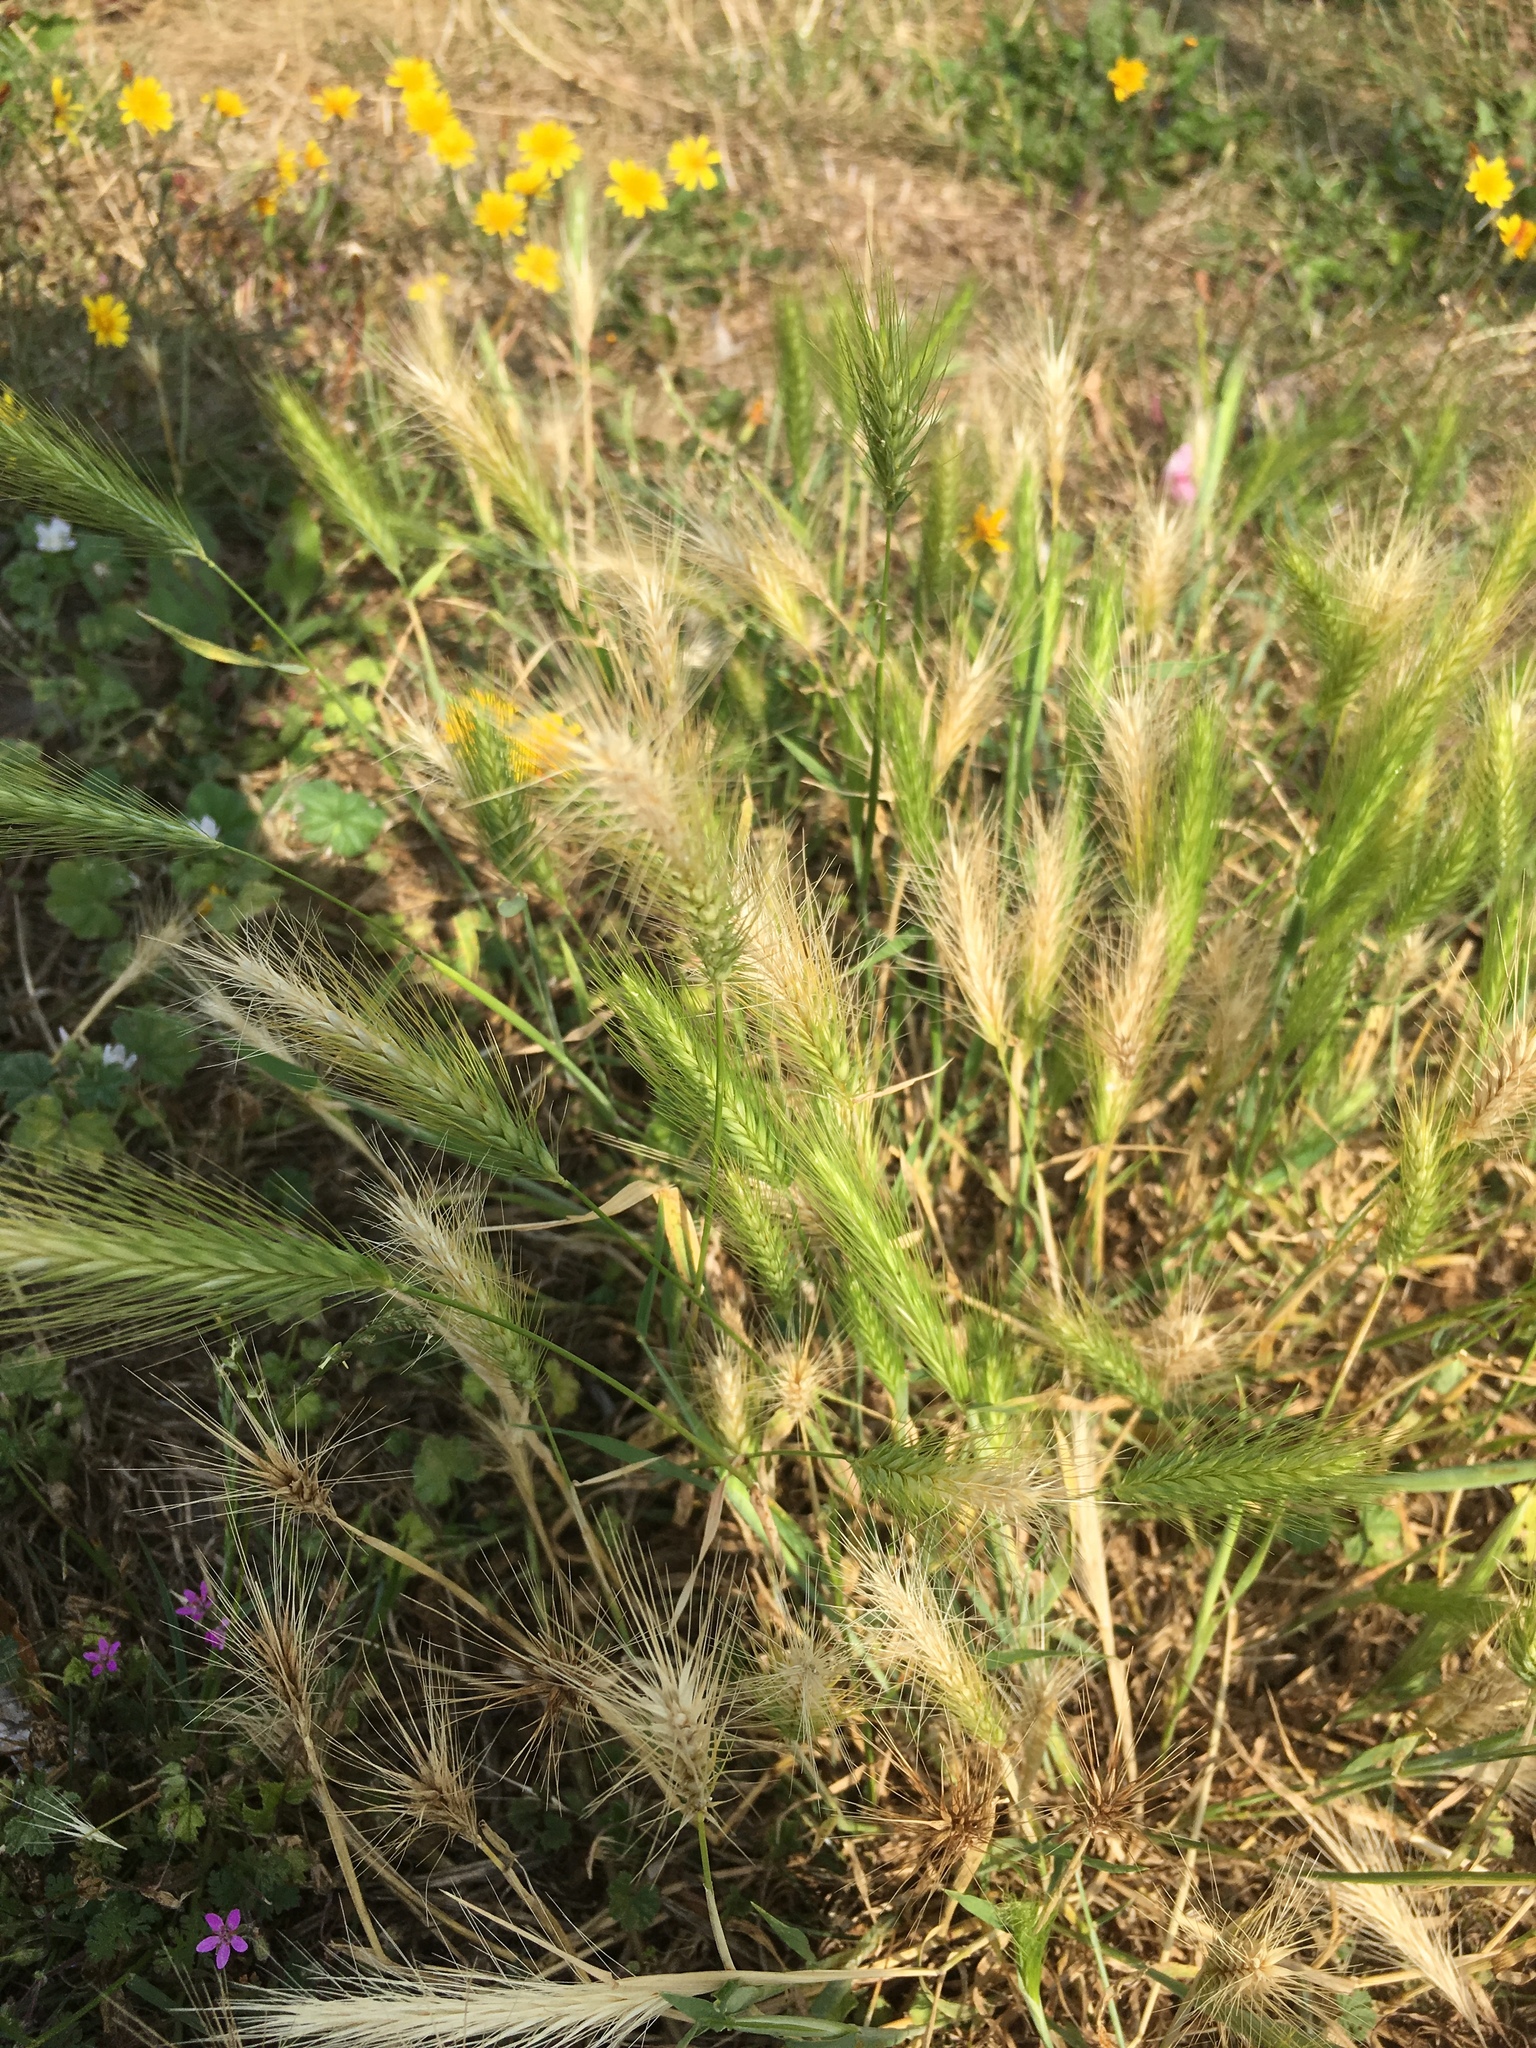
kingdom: Plantae
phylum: Tracheophyta
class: Liliopsida
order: Poales
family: Poaceae
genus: Hordeum
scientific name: Hordeum murinum
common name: Wall barley
